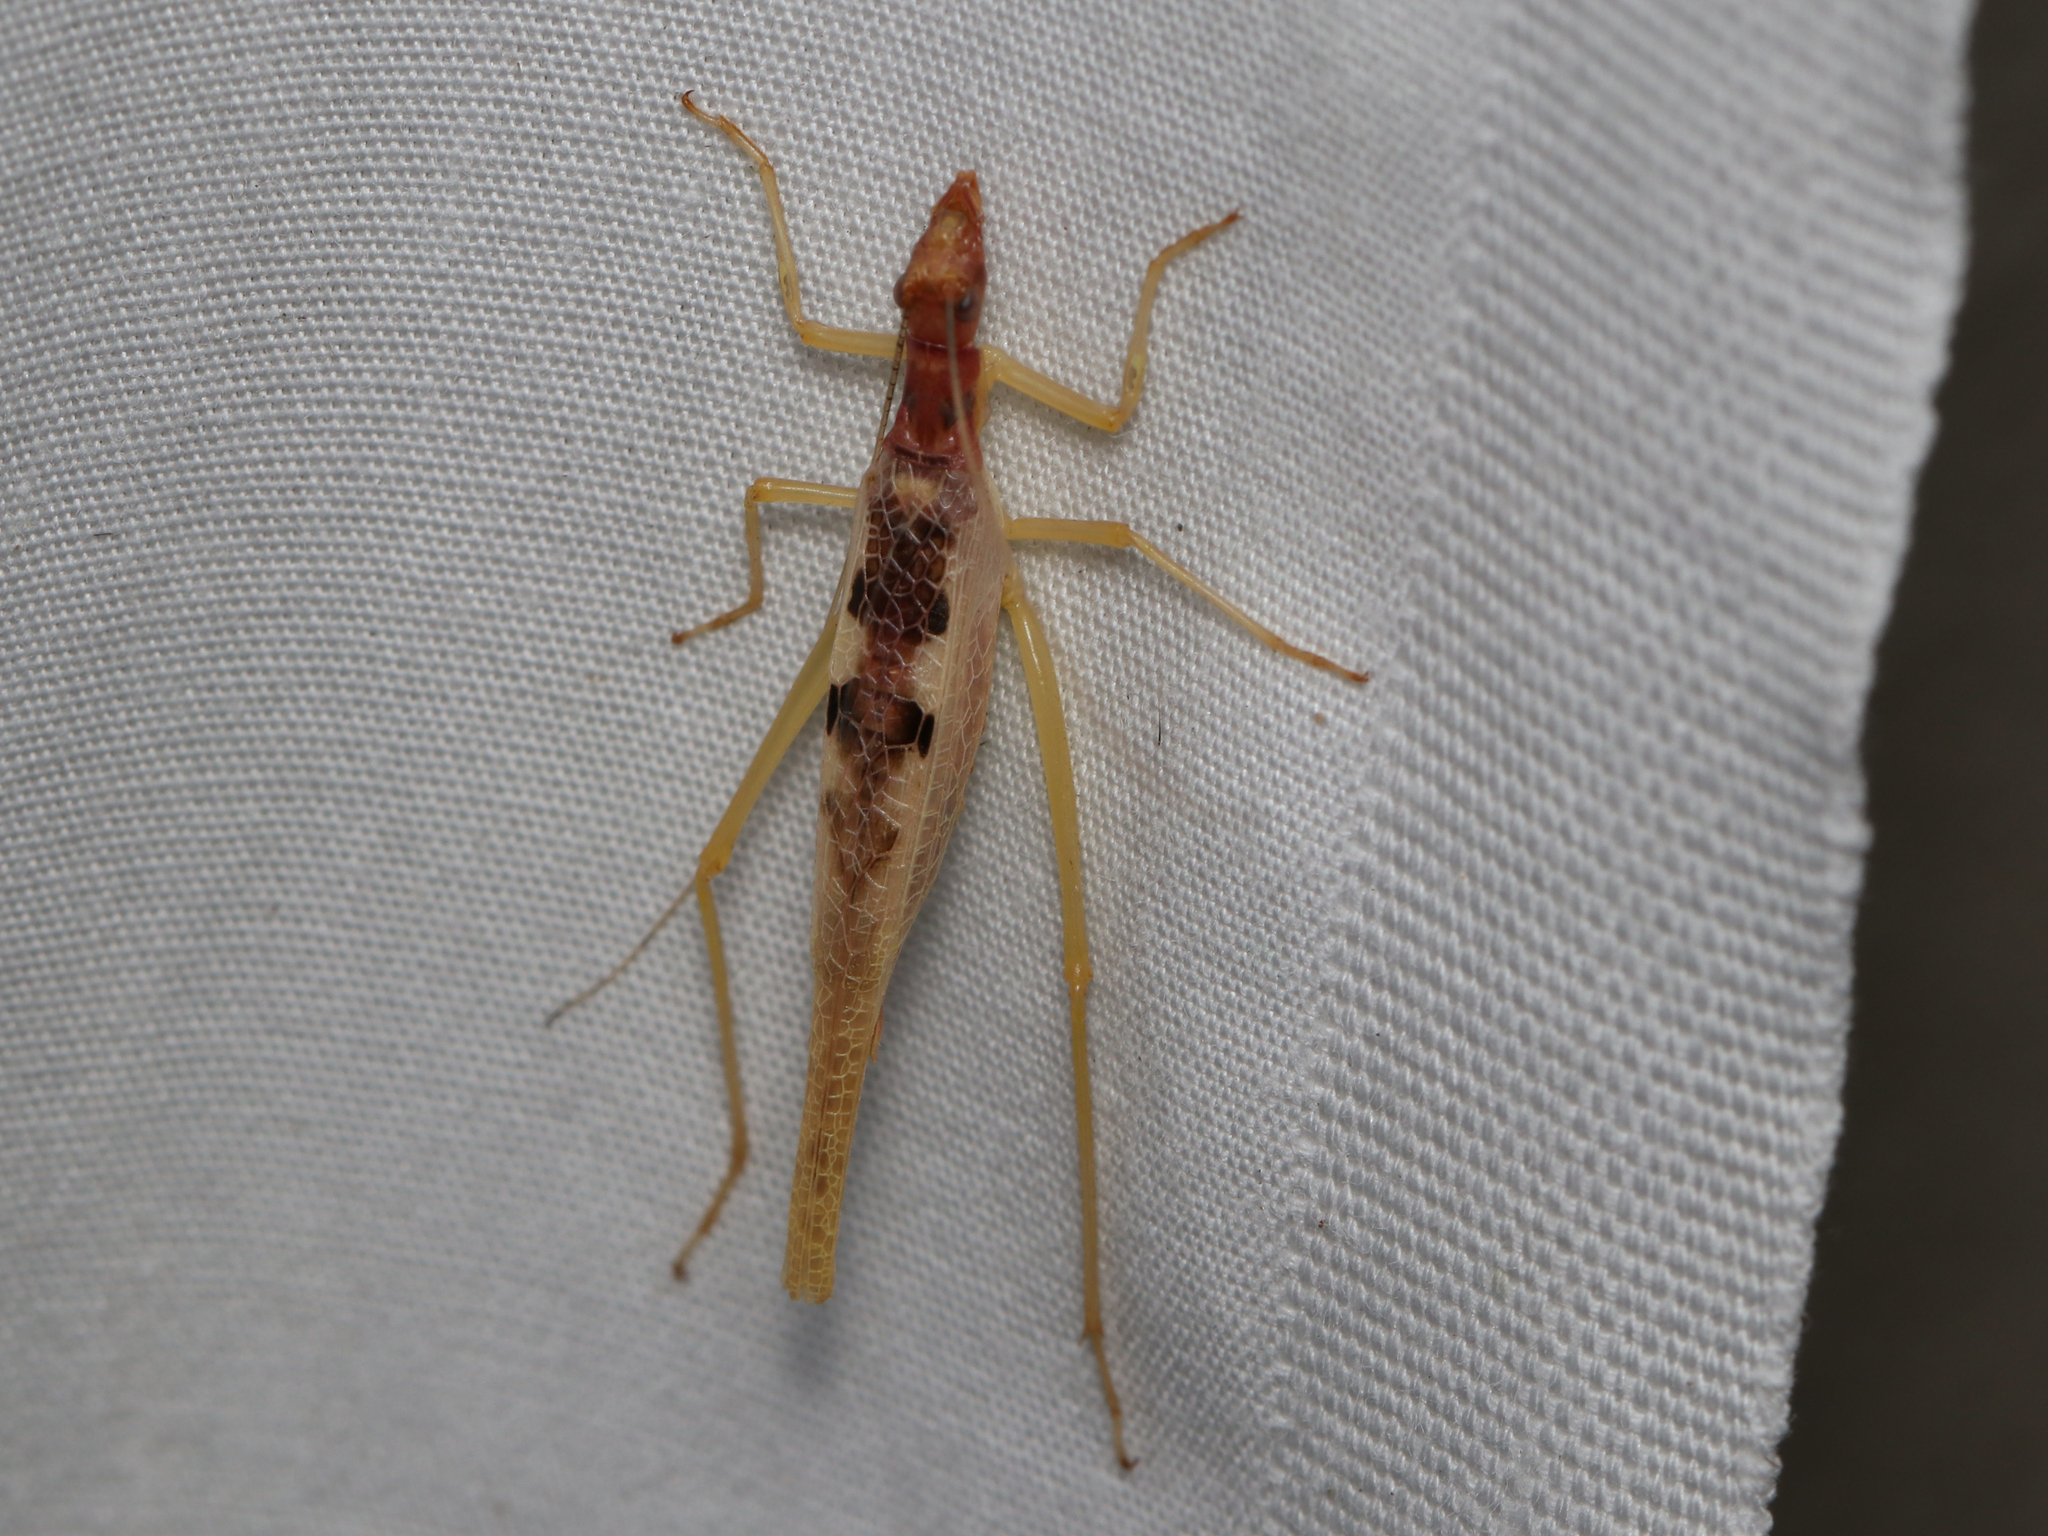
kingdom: Animalia
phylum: Arthropoda
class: Insecta
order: Orthoptera
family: Gryllidae
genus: Neoxabea
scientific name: Neoxabea bipunctata
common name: Two-spotted tree cricket
